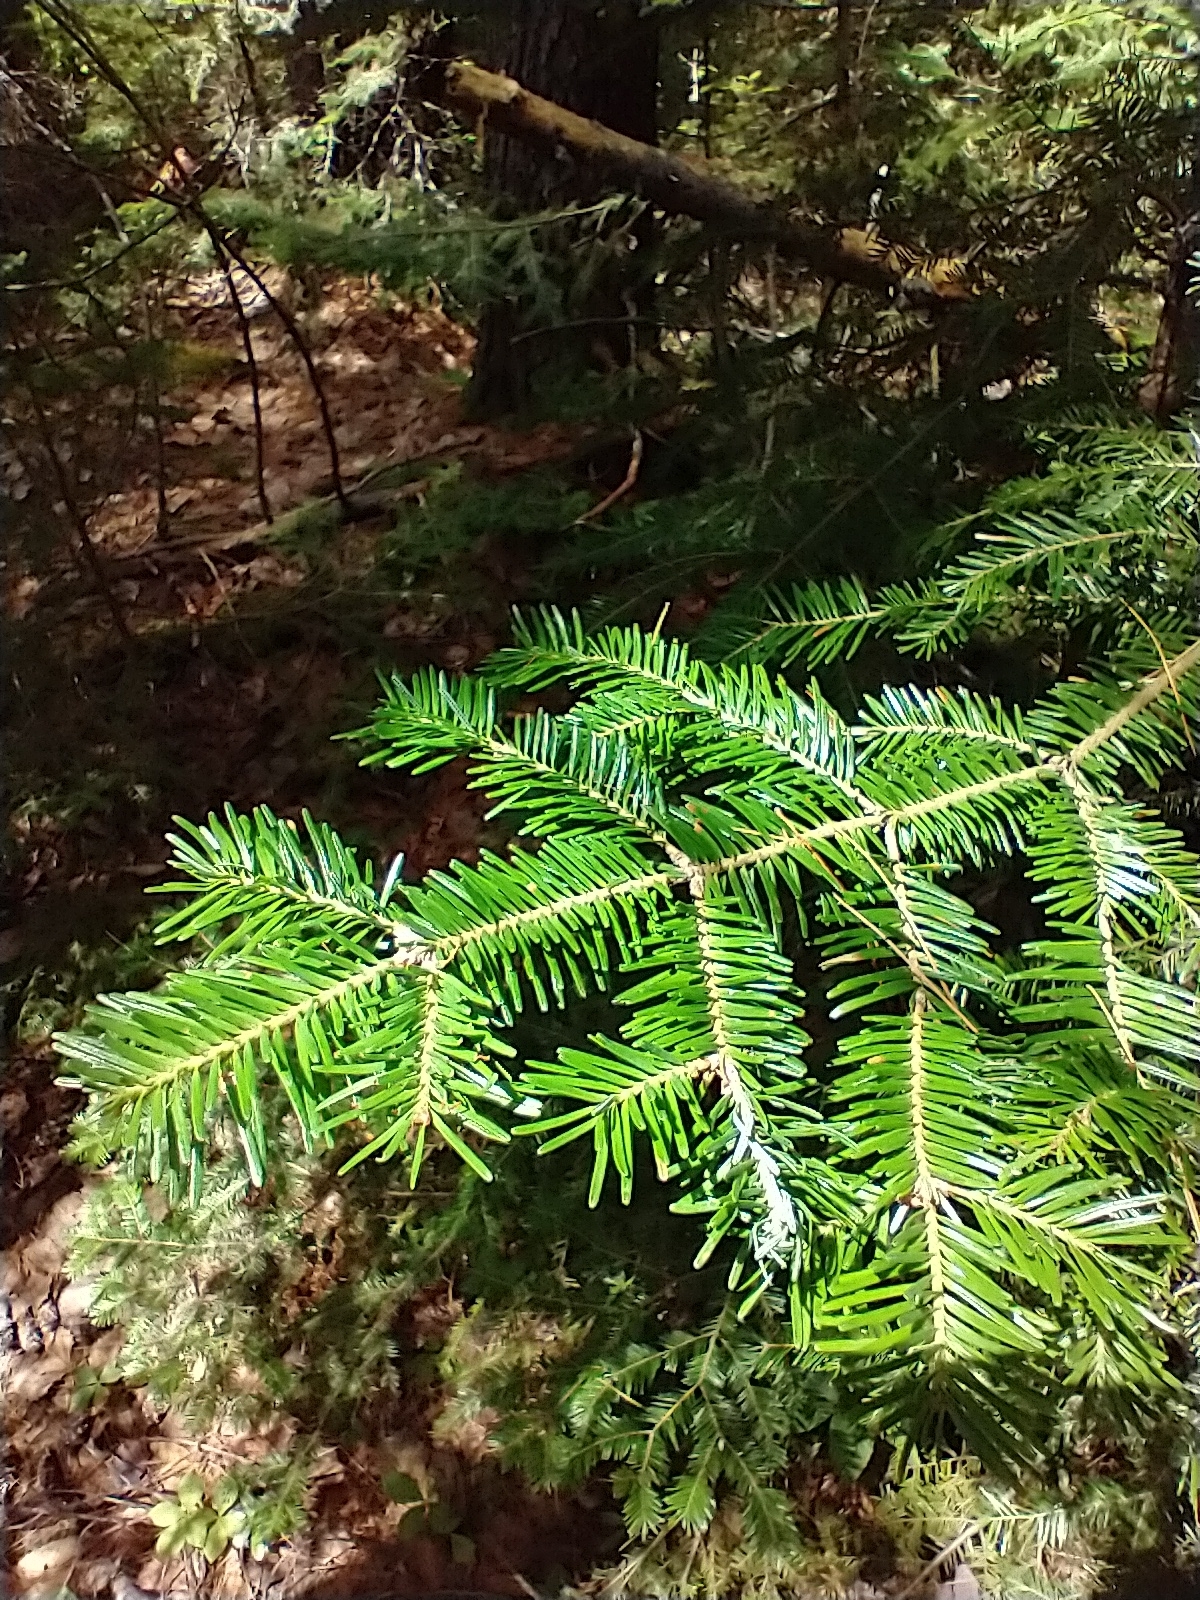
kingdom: Plantae
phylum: Tracheophyta
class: Pinopsida
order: Pinales
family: Pinaceae
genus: Abies
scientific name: Abies balsamea
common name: Balsam fir
